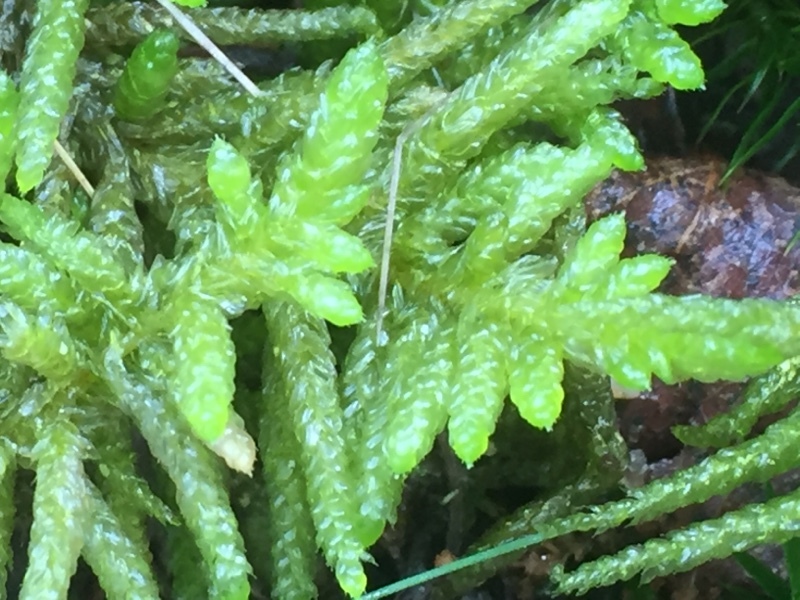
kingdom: Plantae
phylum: Bryophyta
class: Bryopsida
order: Hypnales
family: Brachytheciaceae
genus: Pseudoscleropodium
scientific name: Pseudoscleropodium purum
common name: Neat feather-moss
